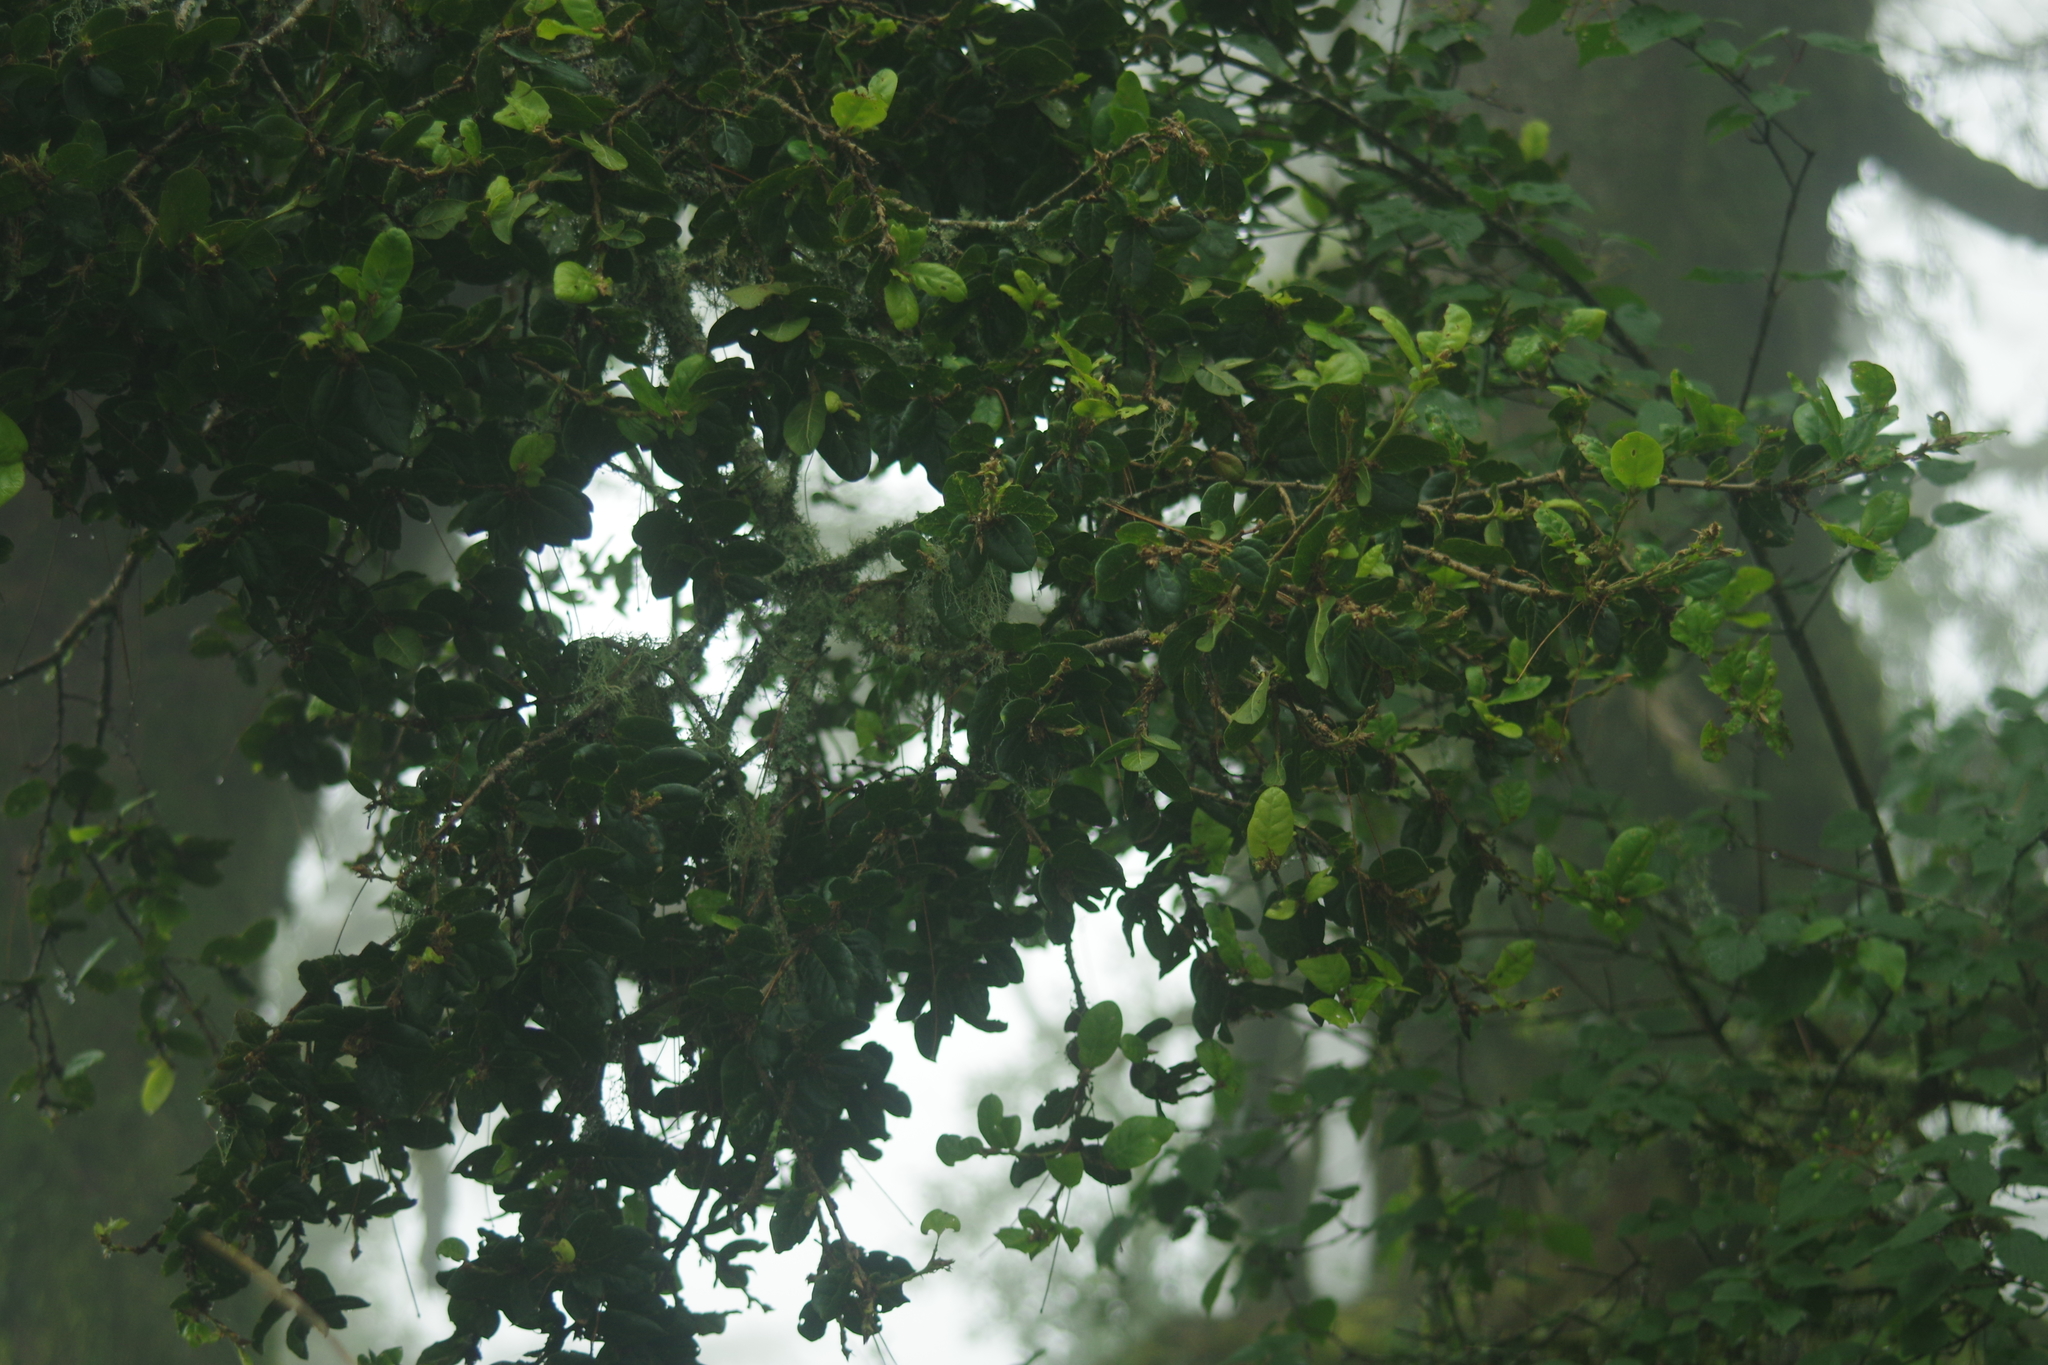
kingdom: Plantae
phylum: Tracheophyta
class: Magnoliopsida
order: Fagales
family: Fagaceae
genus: Quercus
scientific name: Quercus spinosa
